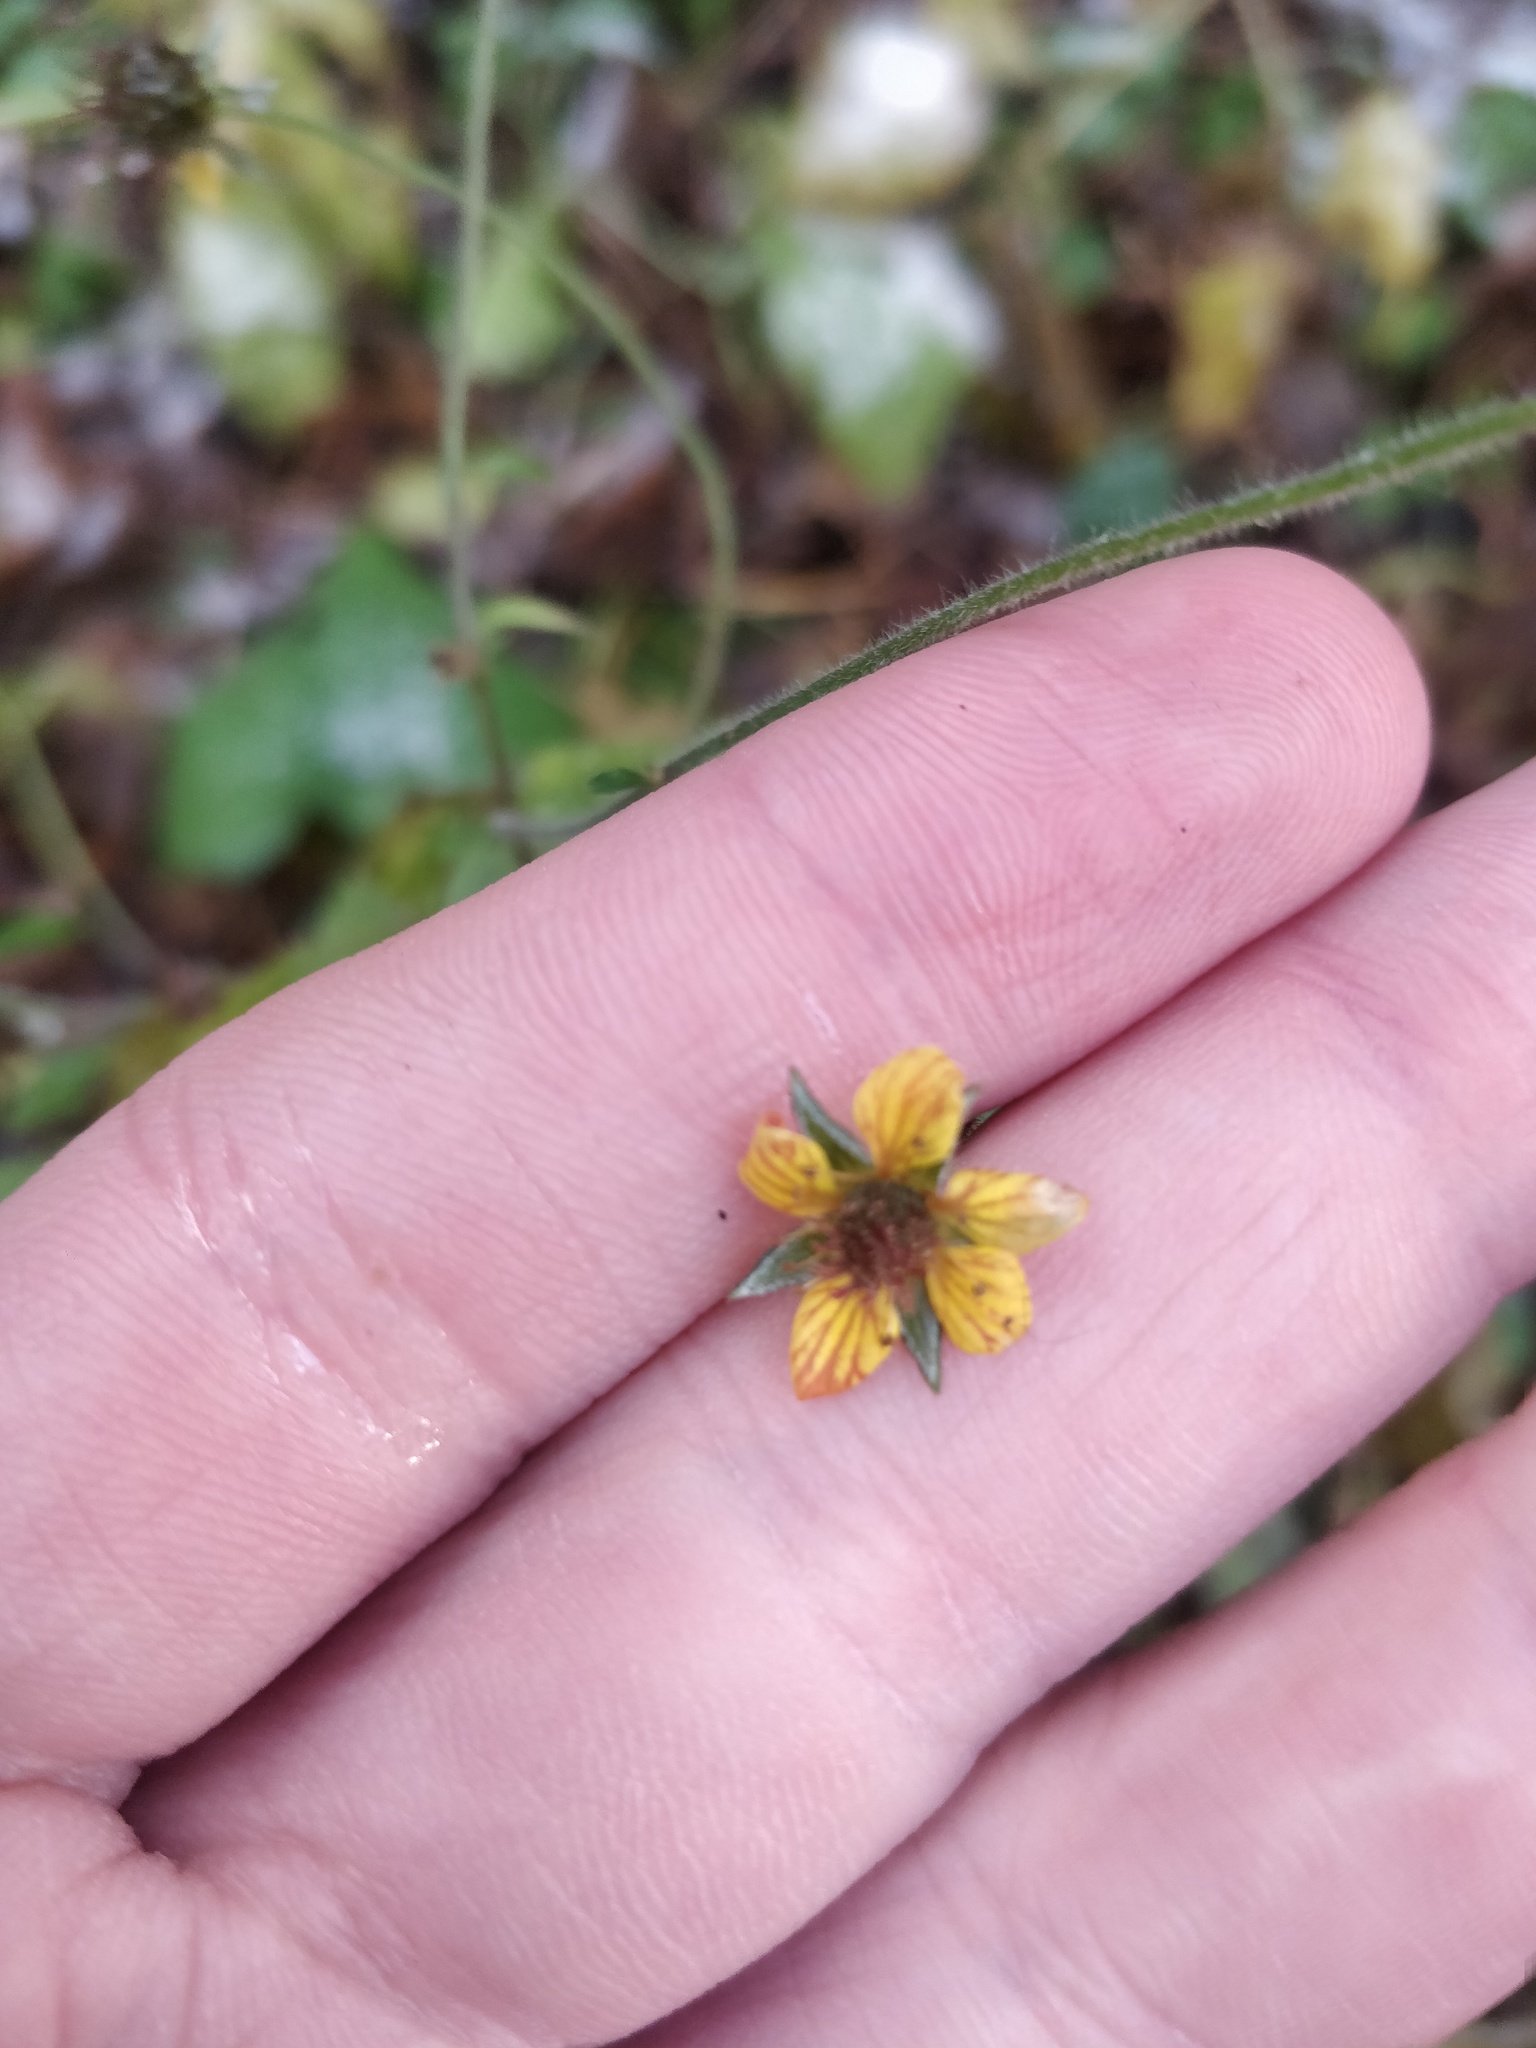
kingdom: Plantae
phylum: Tracheophyta
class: Magnoliopsida
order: Rosales
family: Rosaceae
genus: Geum
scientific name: Geum urbanum
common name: Wood avens
